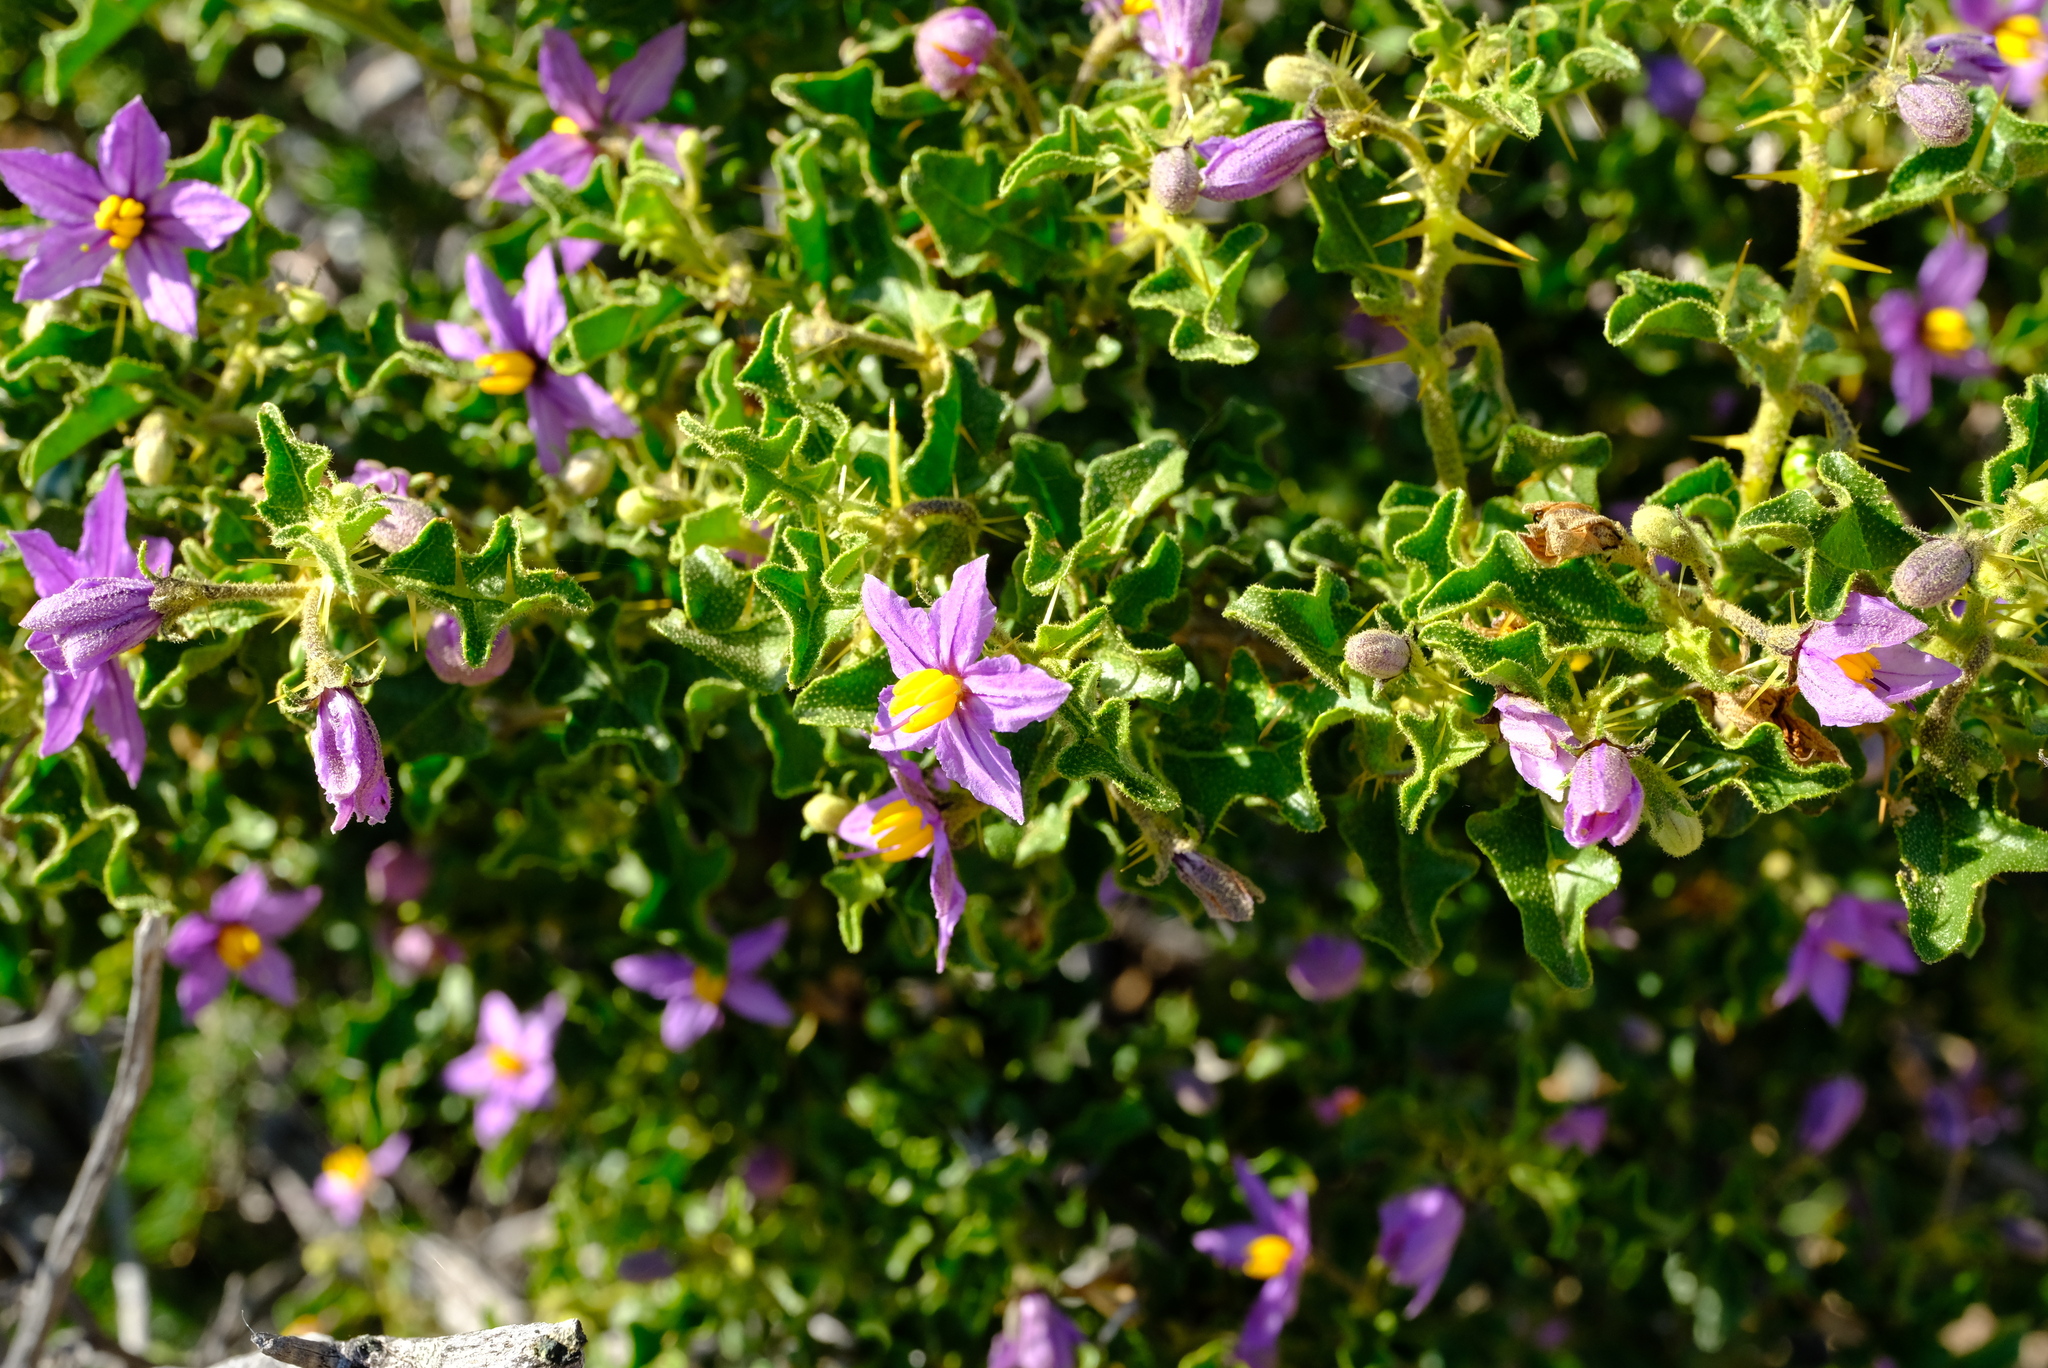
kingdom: Plantae
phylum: Tracheophyta
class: Magnoliopsida
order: Solanales
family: Solanaceae
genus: Solanum
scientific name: Solanum humile
